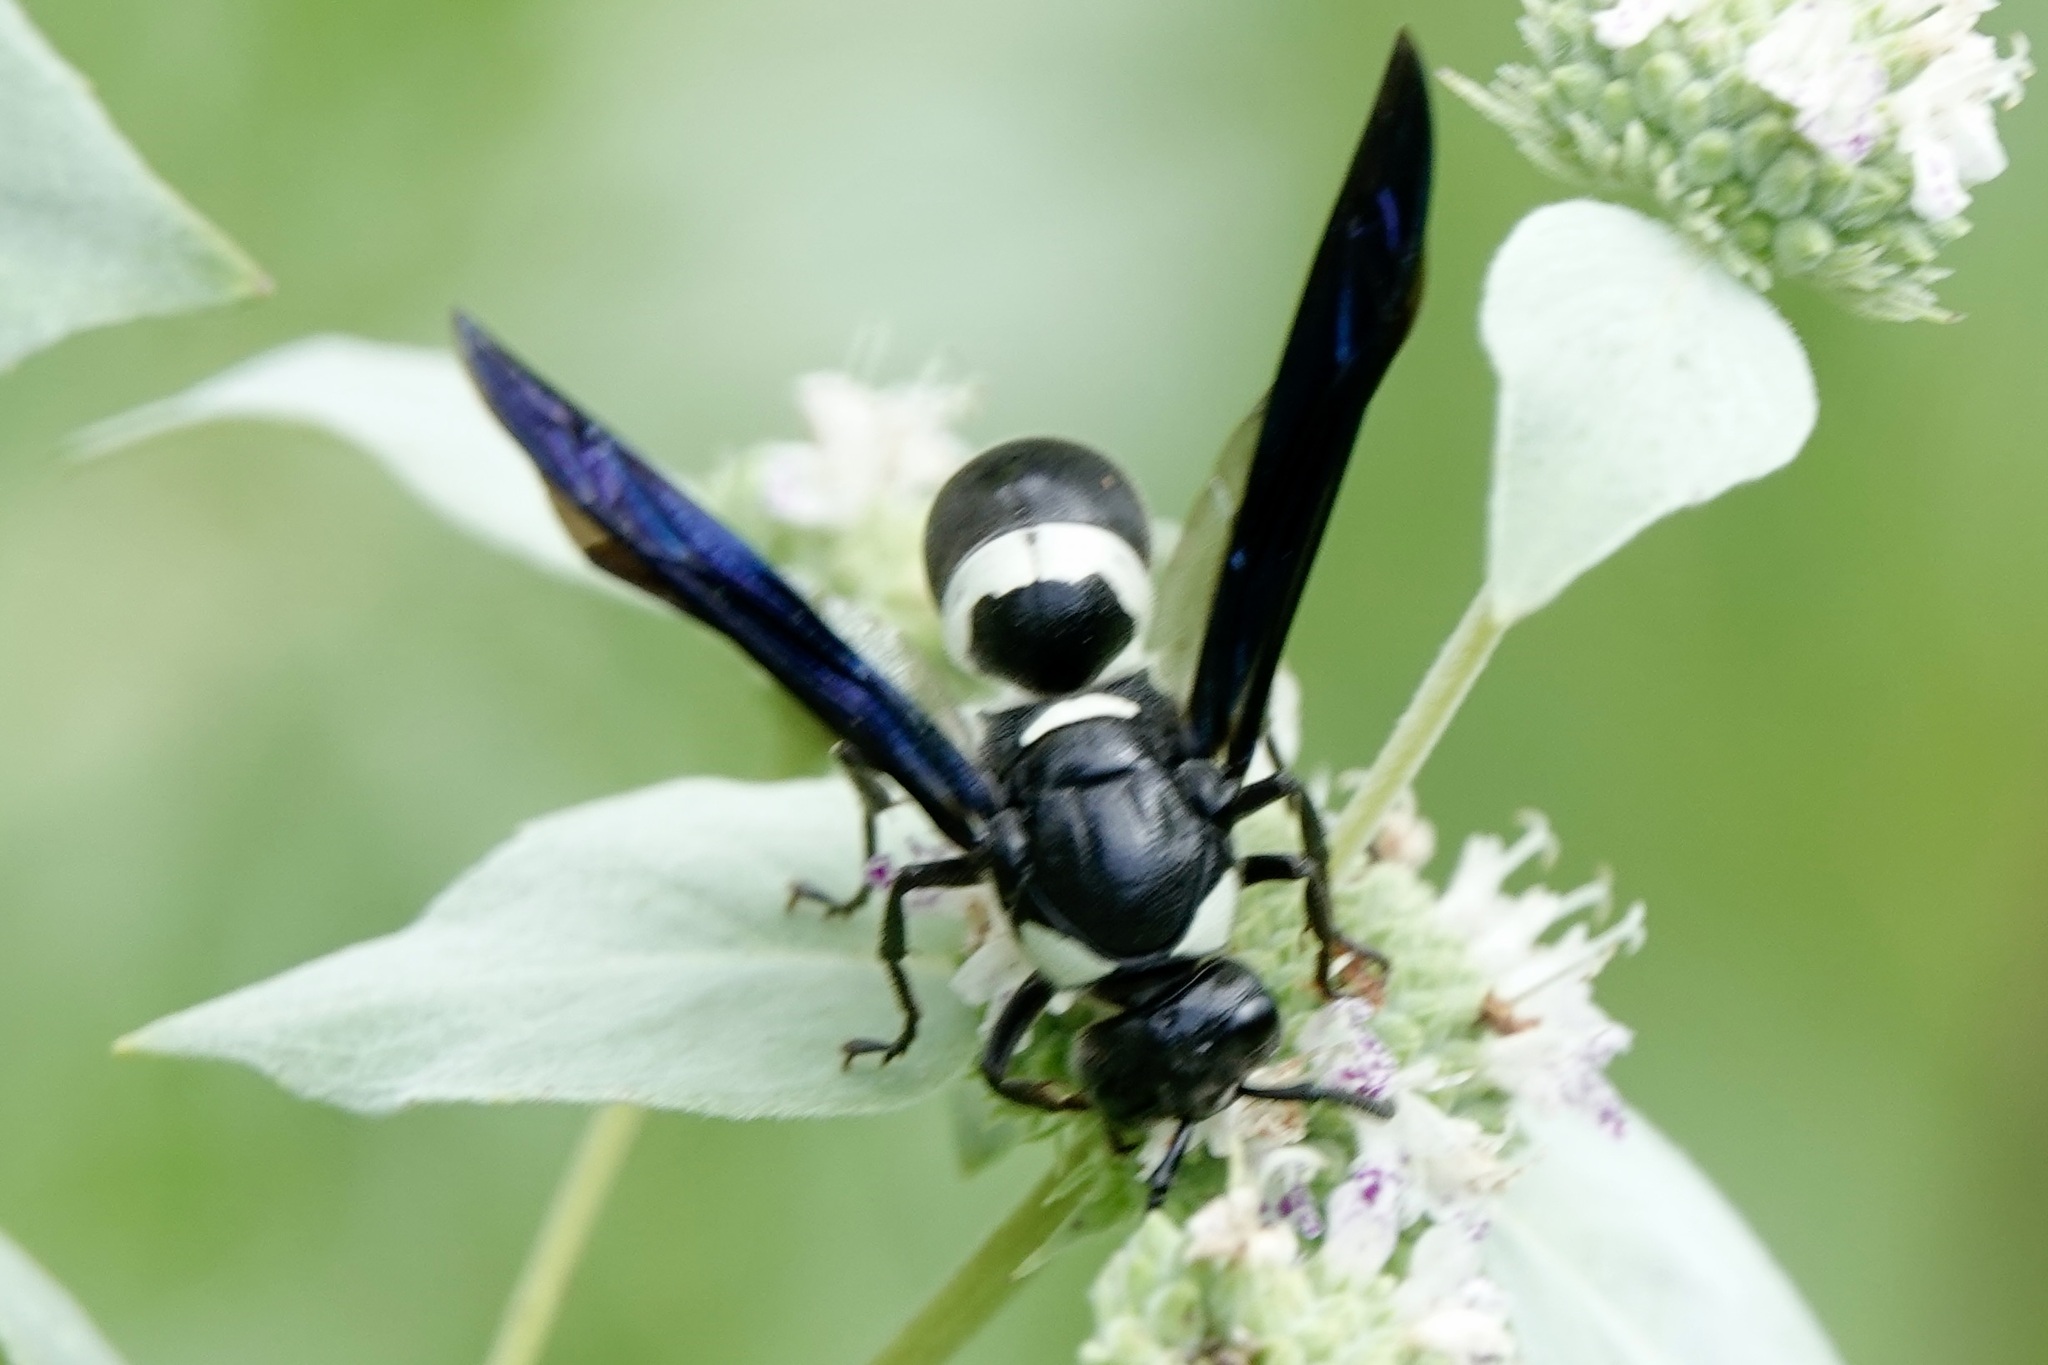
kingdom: Animalia
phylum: Arthropoda
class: Insecta
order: Hymenoptera
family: Eumenidae
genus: Monobia
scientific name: Monobia quadridens
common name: Four-toothed mason wasp
